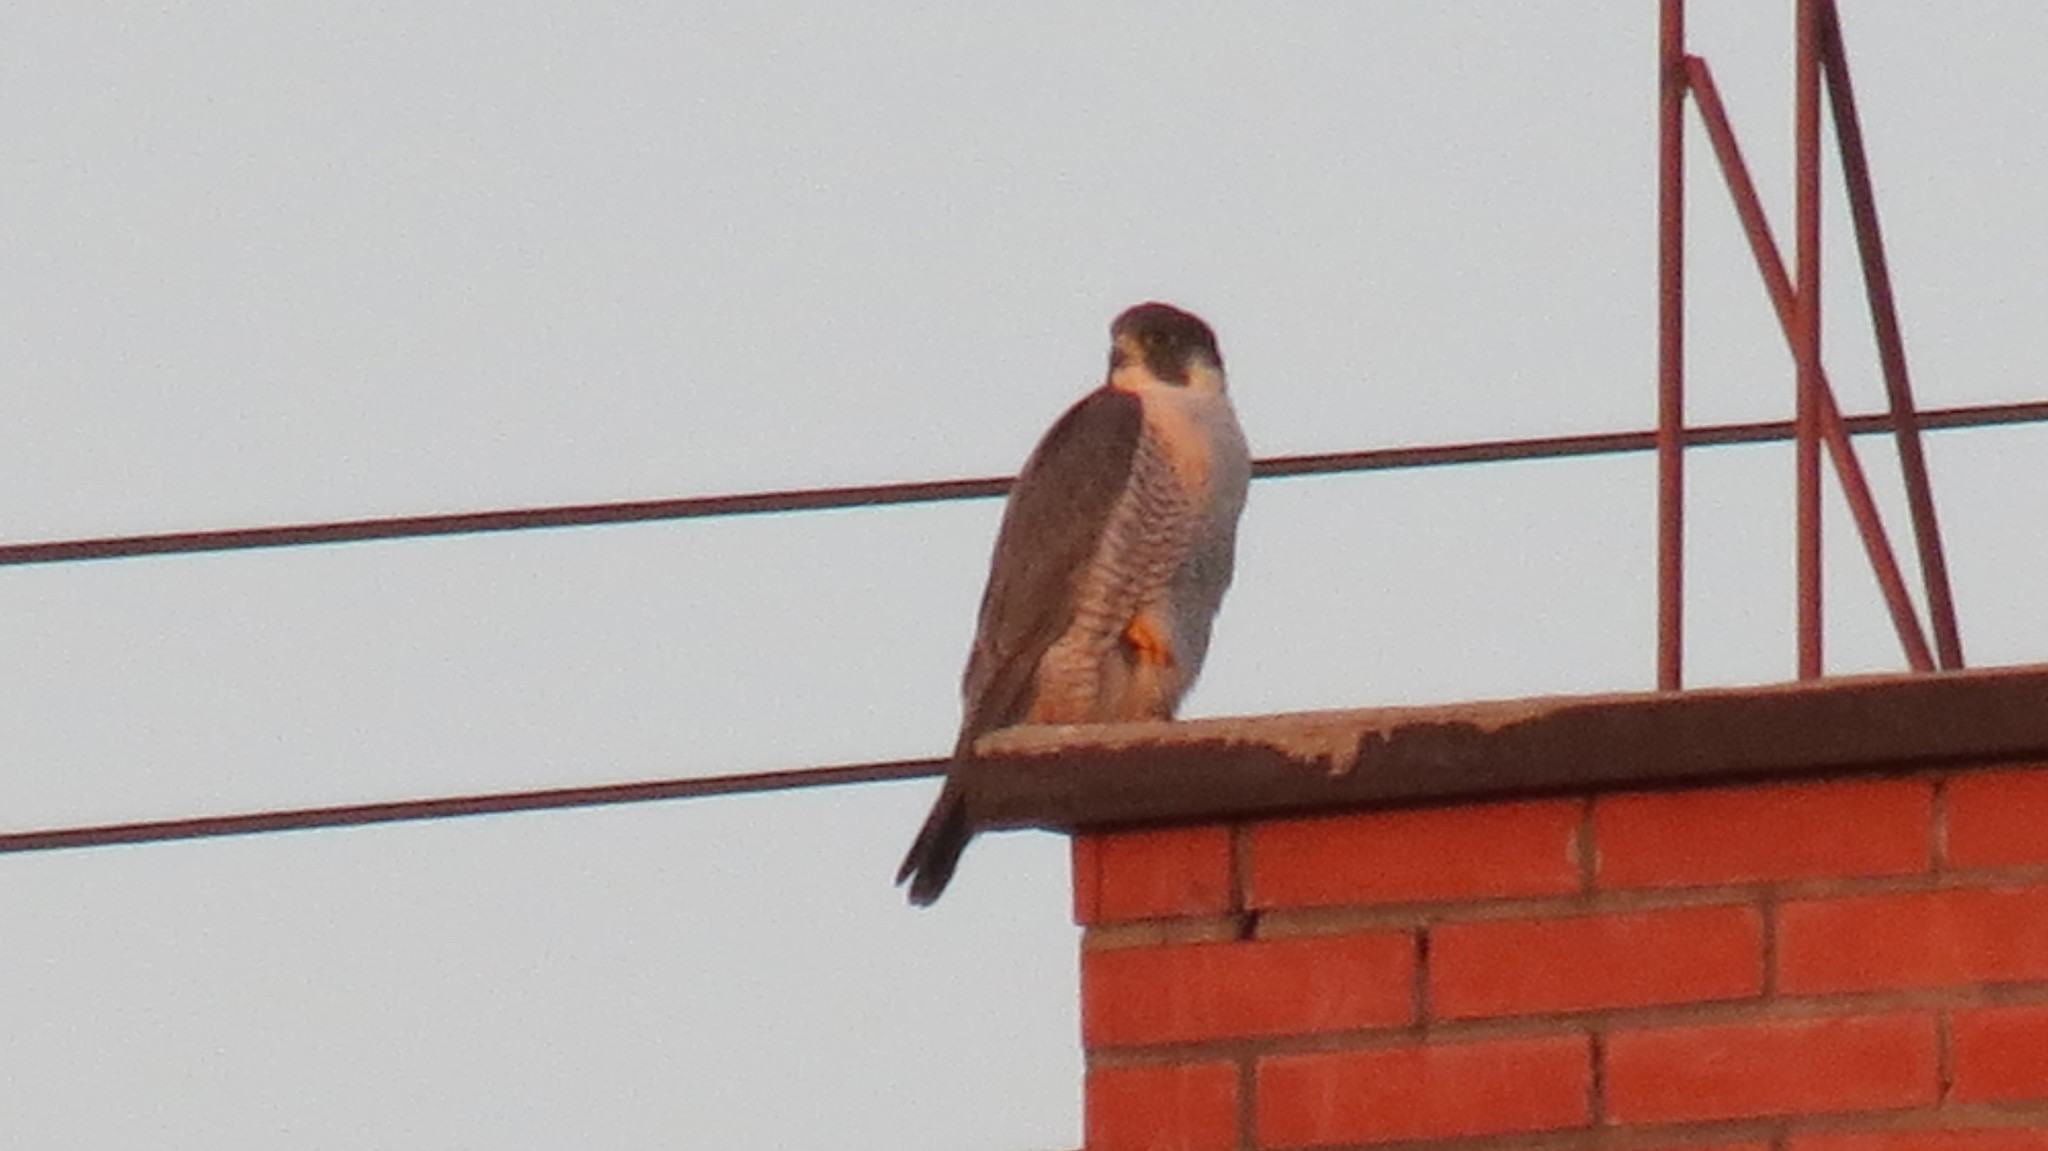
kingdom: Animalia
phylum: Chordata
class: Aves
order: Falconiformes
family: Falconidae
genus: Falco
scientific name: Falco peregrinus
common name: Peregrine falcon
